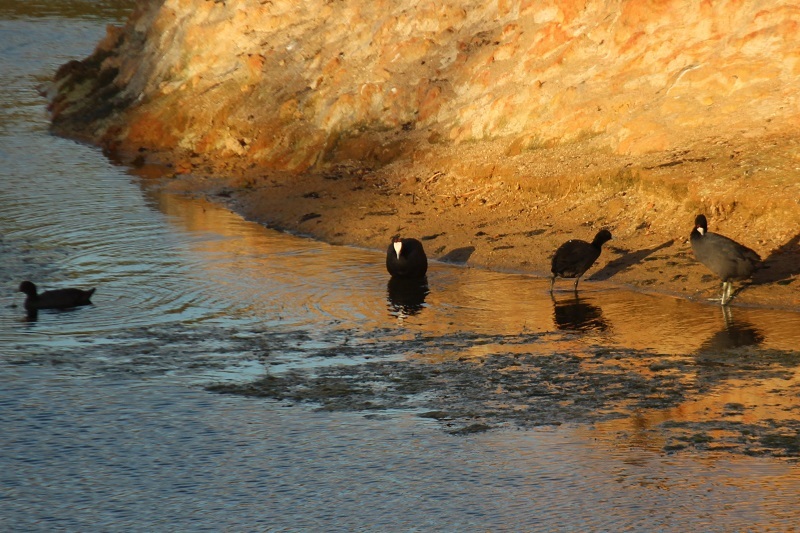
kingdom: Animalia
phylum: Chordata
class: Aves
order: Gruiformes
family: Rallidae
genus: Fulica
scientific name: Fulica cristata
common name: Red-knobbed coot
